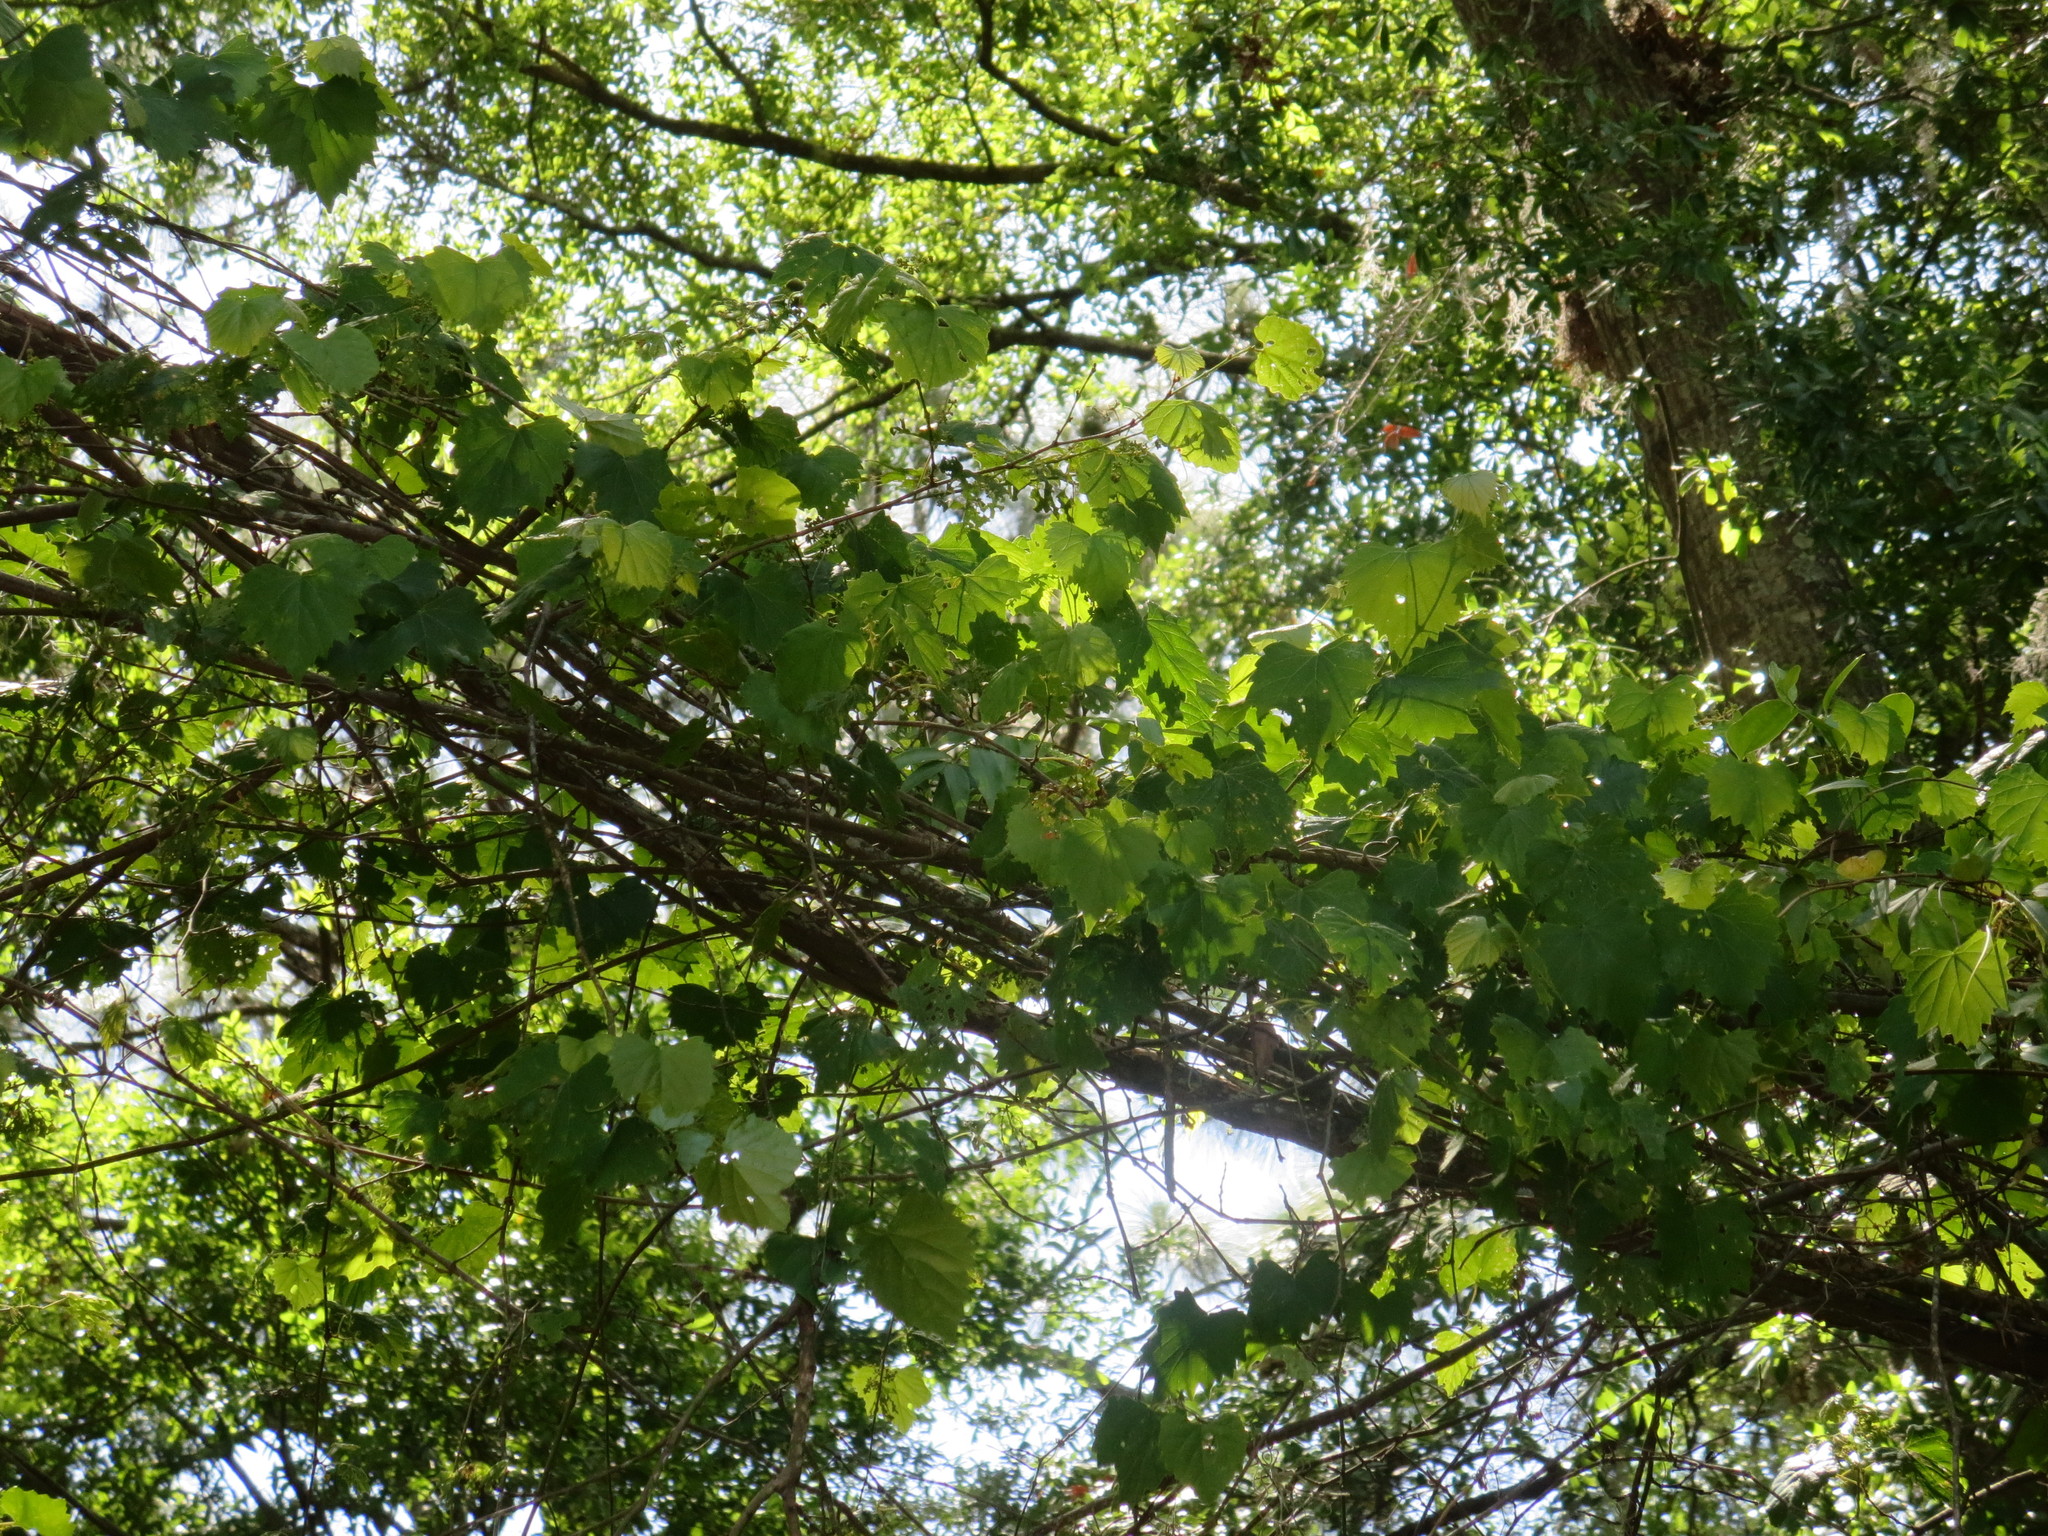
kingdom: Plantae
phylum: Tracheophyta
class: Magnoliopsida
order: Vitales
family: Vitaceae
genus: Vitis
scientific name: Vitis rotundifolia
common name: Muscadine grape
